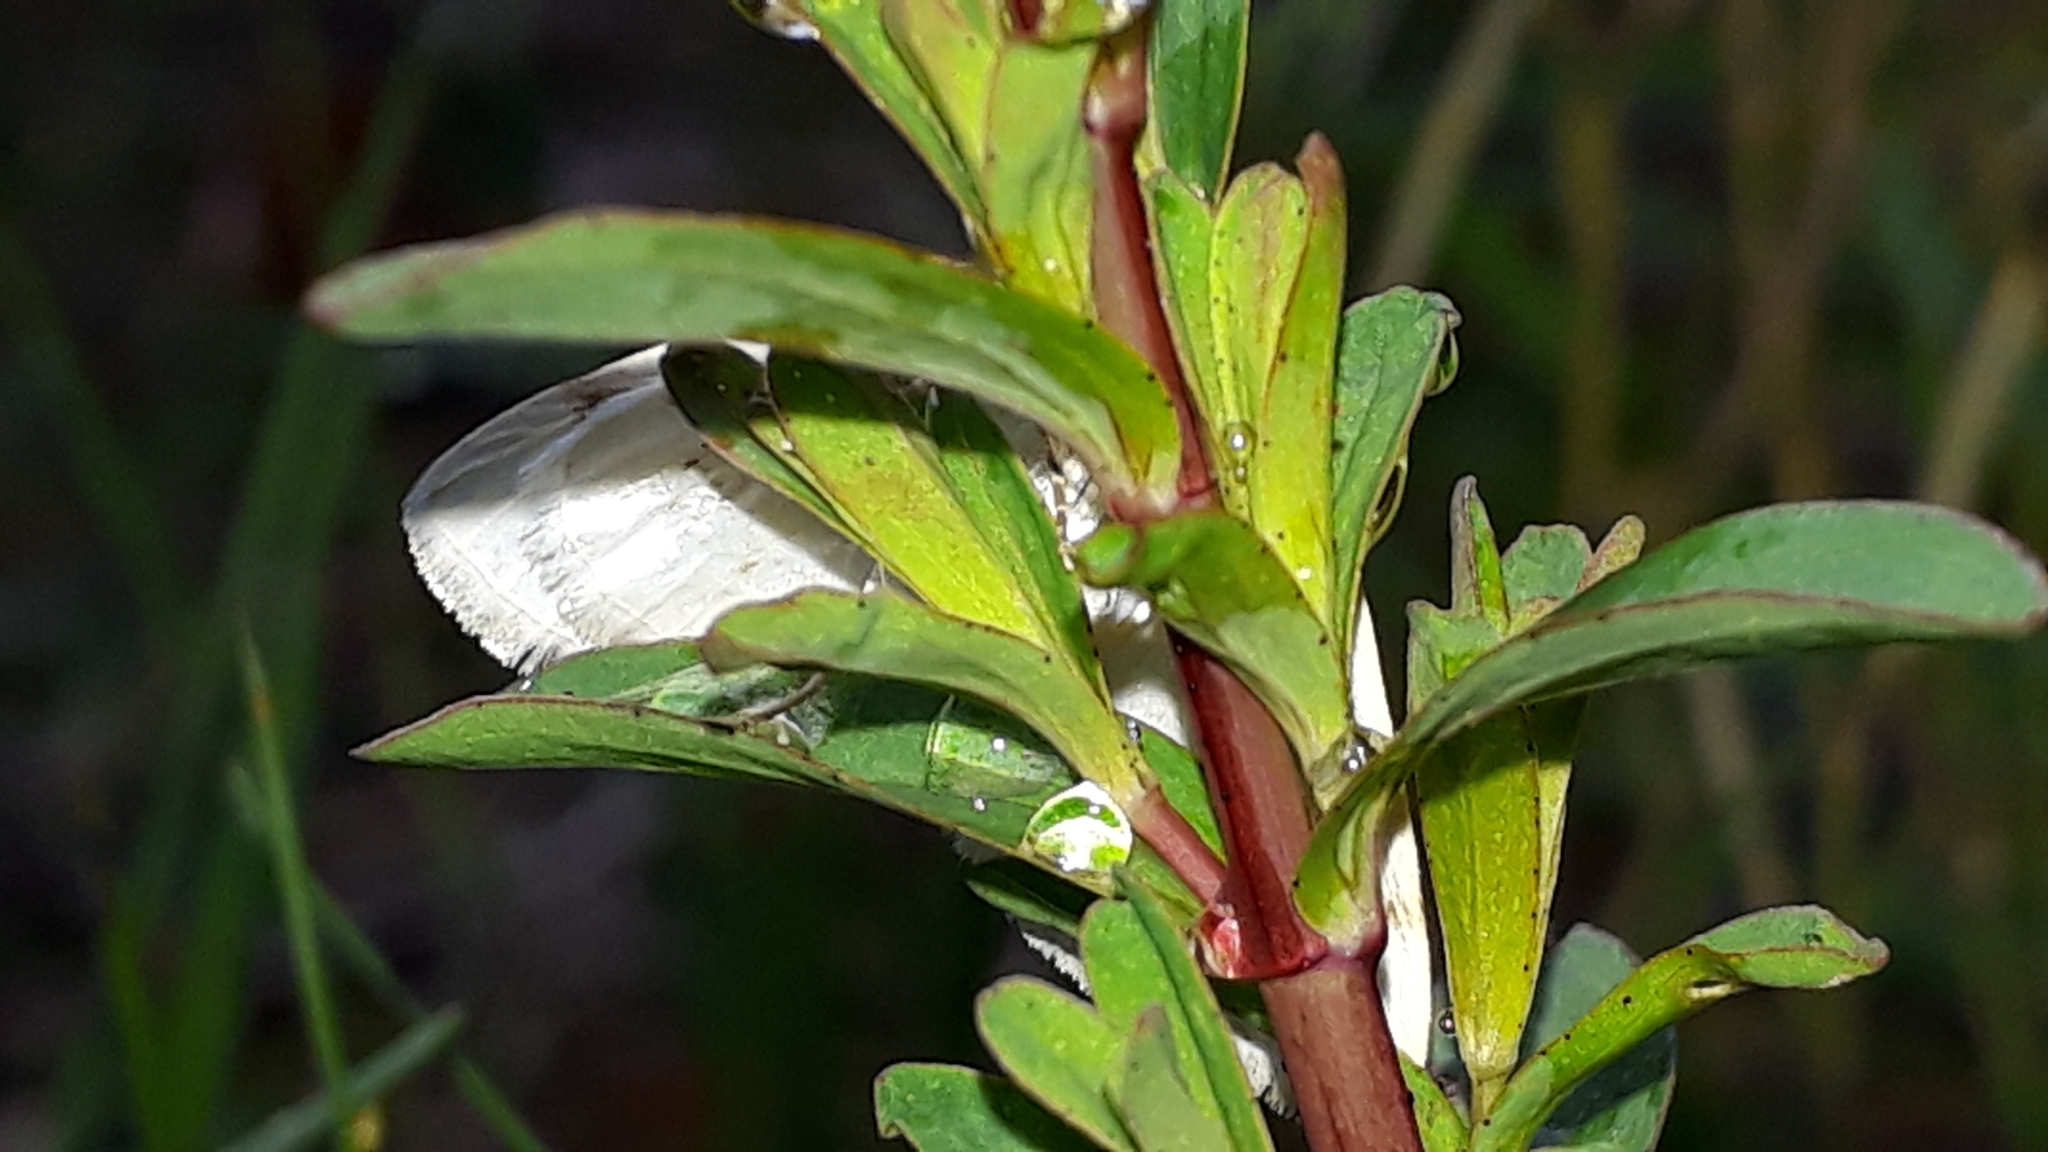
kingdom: Animalia
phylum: Arthropoda
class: Insecta
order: Lepidoptera
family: Geometridae
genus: Lomographa
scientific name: Lomographa bimaculata
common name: White-pinion spotted
